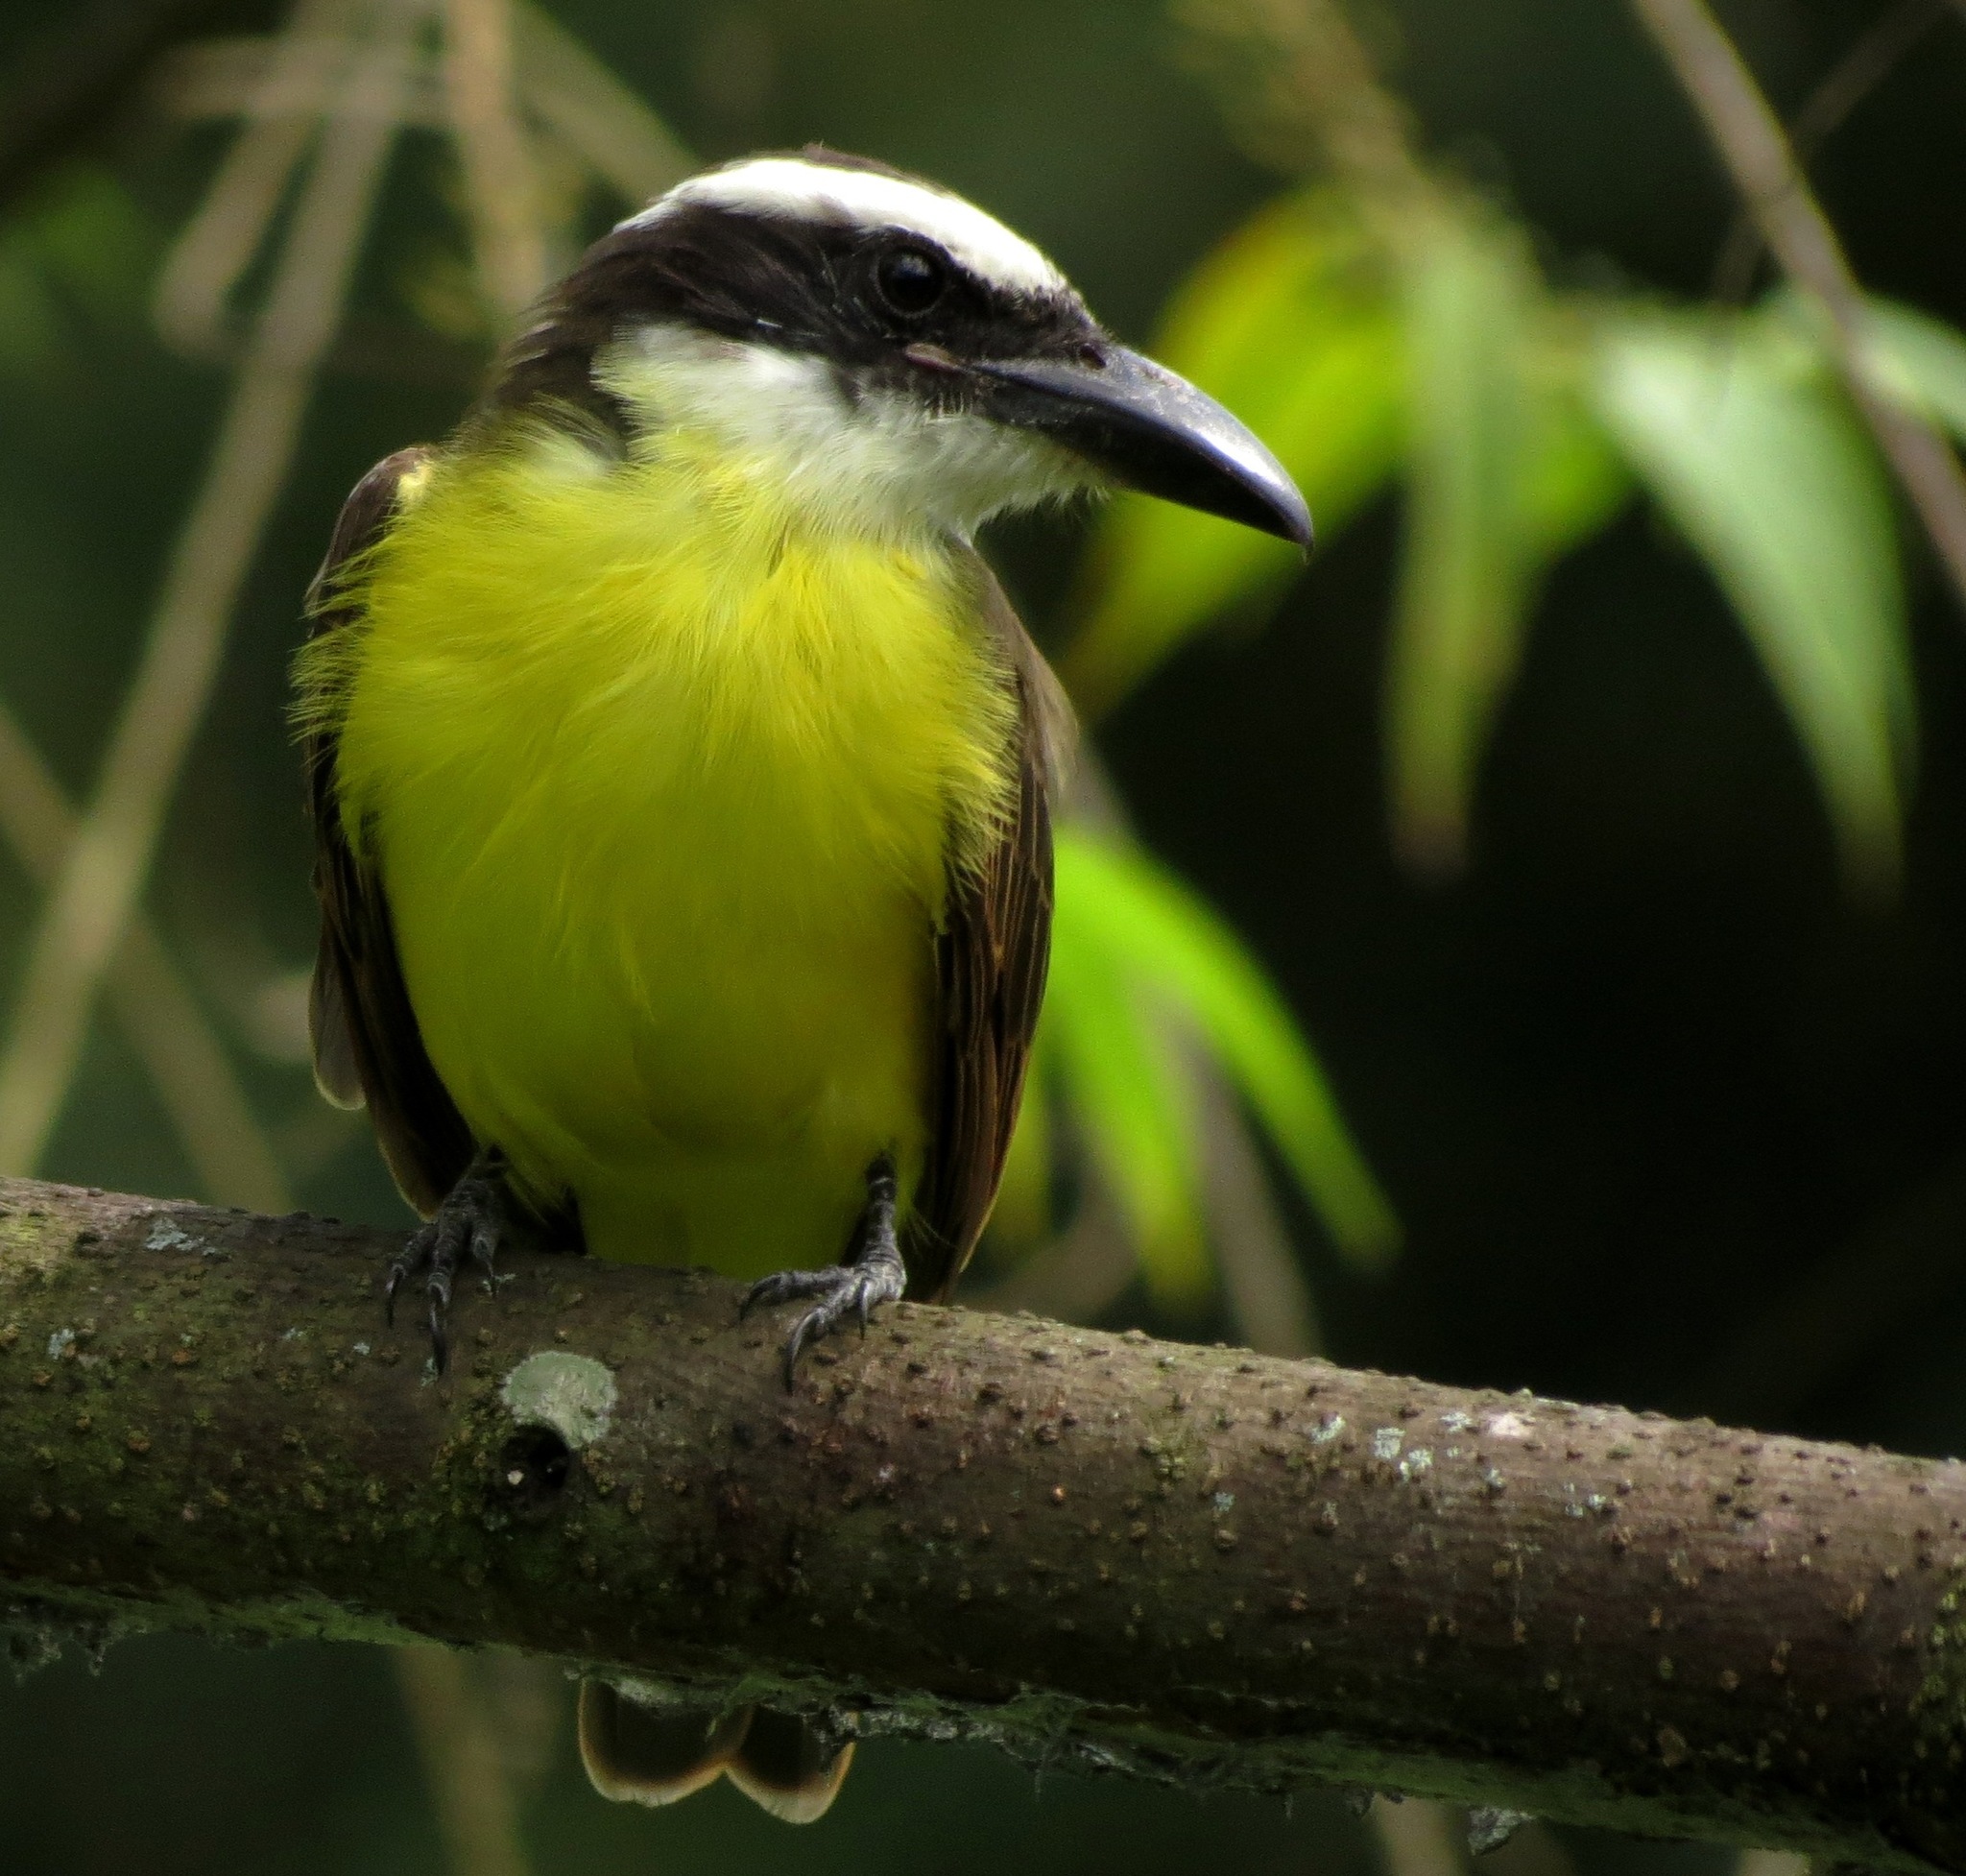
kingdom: Animalia
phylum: Chordata
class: Aves
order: Passeriformes
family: Tyrannidae
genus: Megarynchus
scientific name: Megarynchus pitangua
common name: Boat-billed flycatcher
